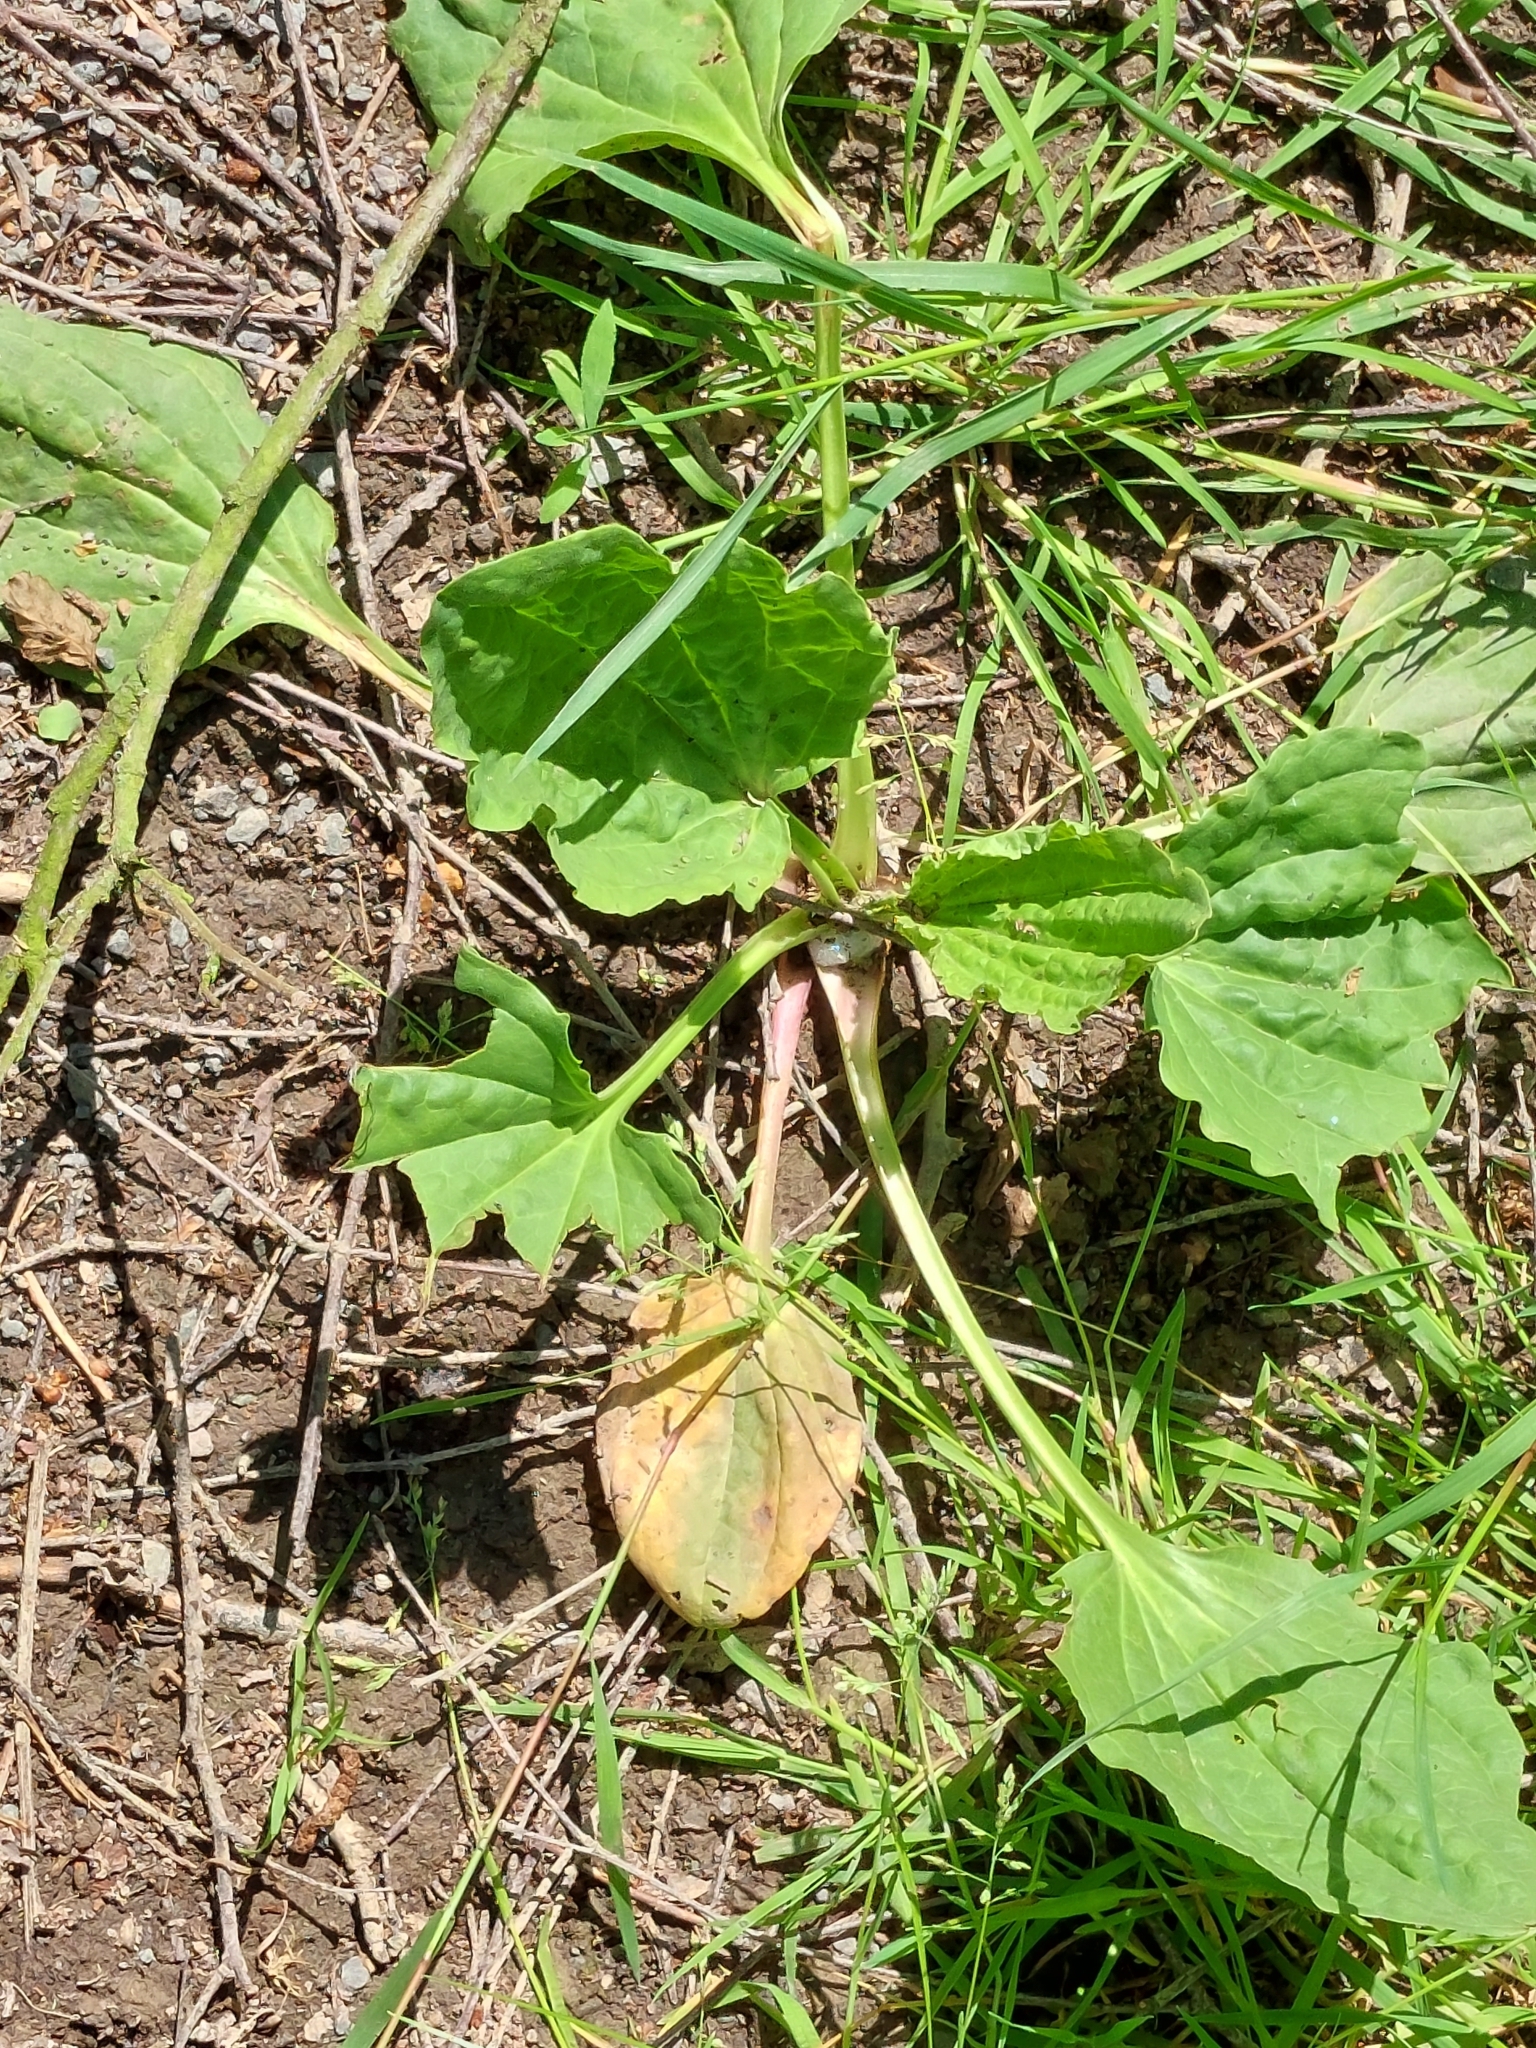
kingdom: Plantae
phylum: Tracheophyta
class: Magnoliopsida
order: Lamiales
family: Plantaginaceae
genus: Plantago
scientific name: Plantago major
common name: Common plantain
